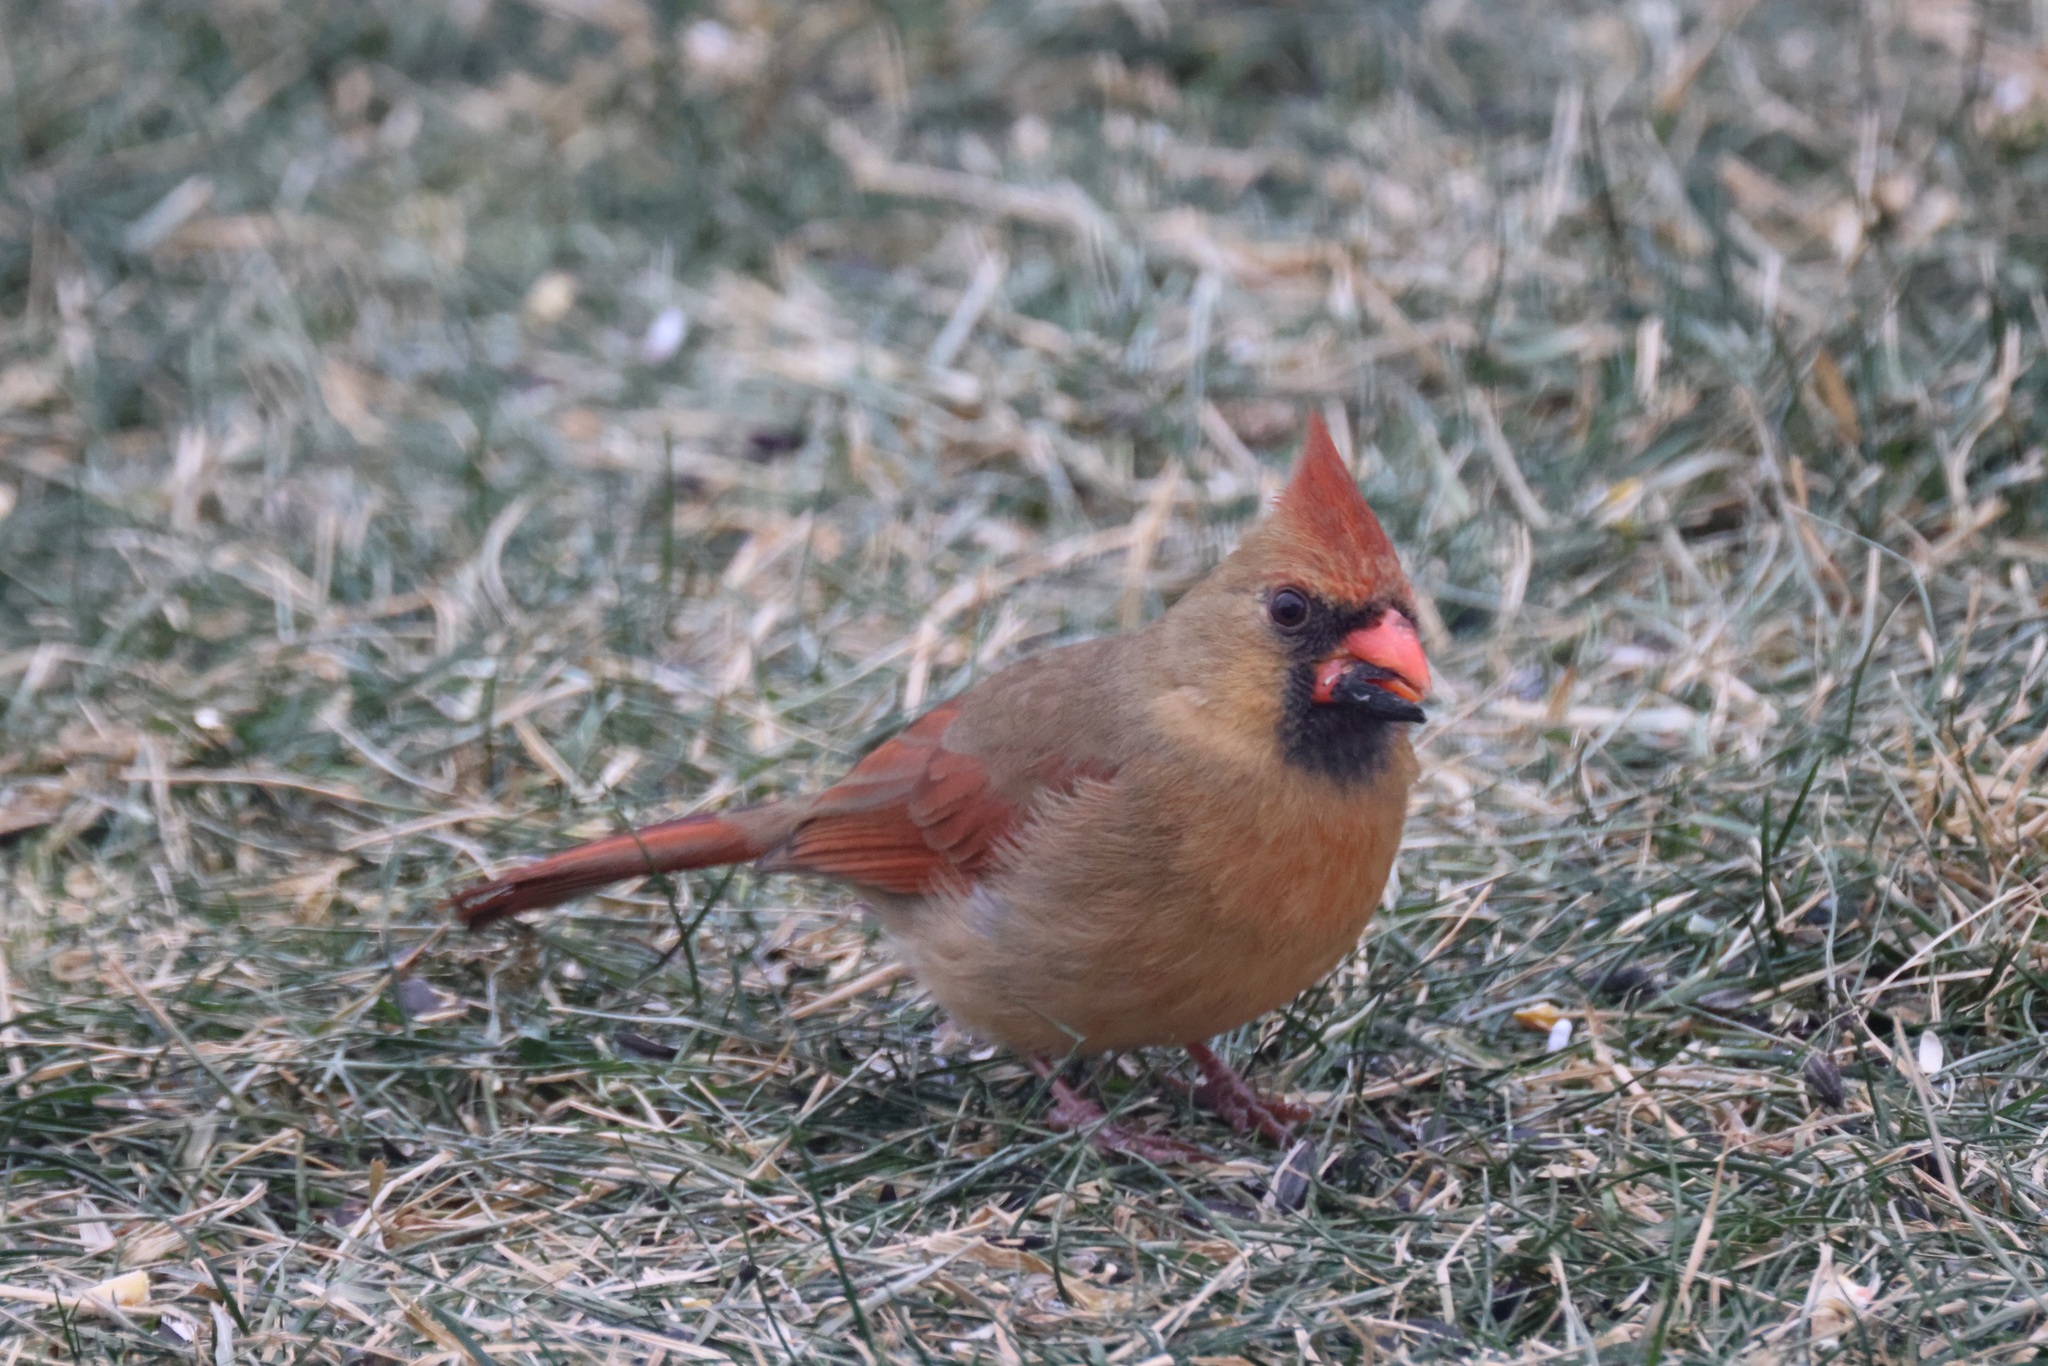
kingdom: Animalia
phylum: Chordata
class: Aves
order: Passeriformes
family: Cardinalidae
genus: Cardinalis
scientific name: Cardinalis cardinalis
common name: Northern cardinal
